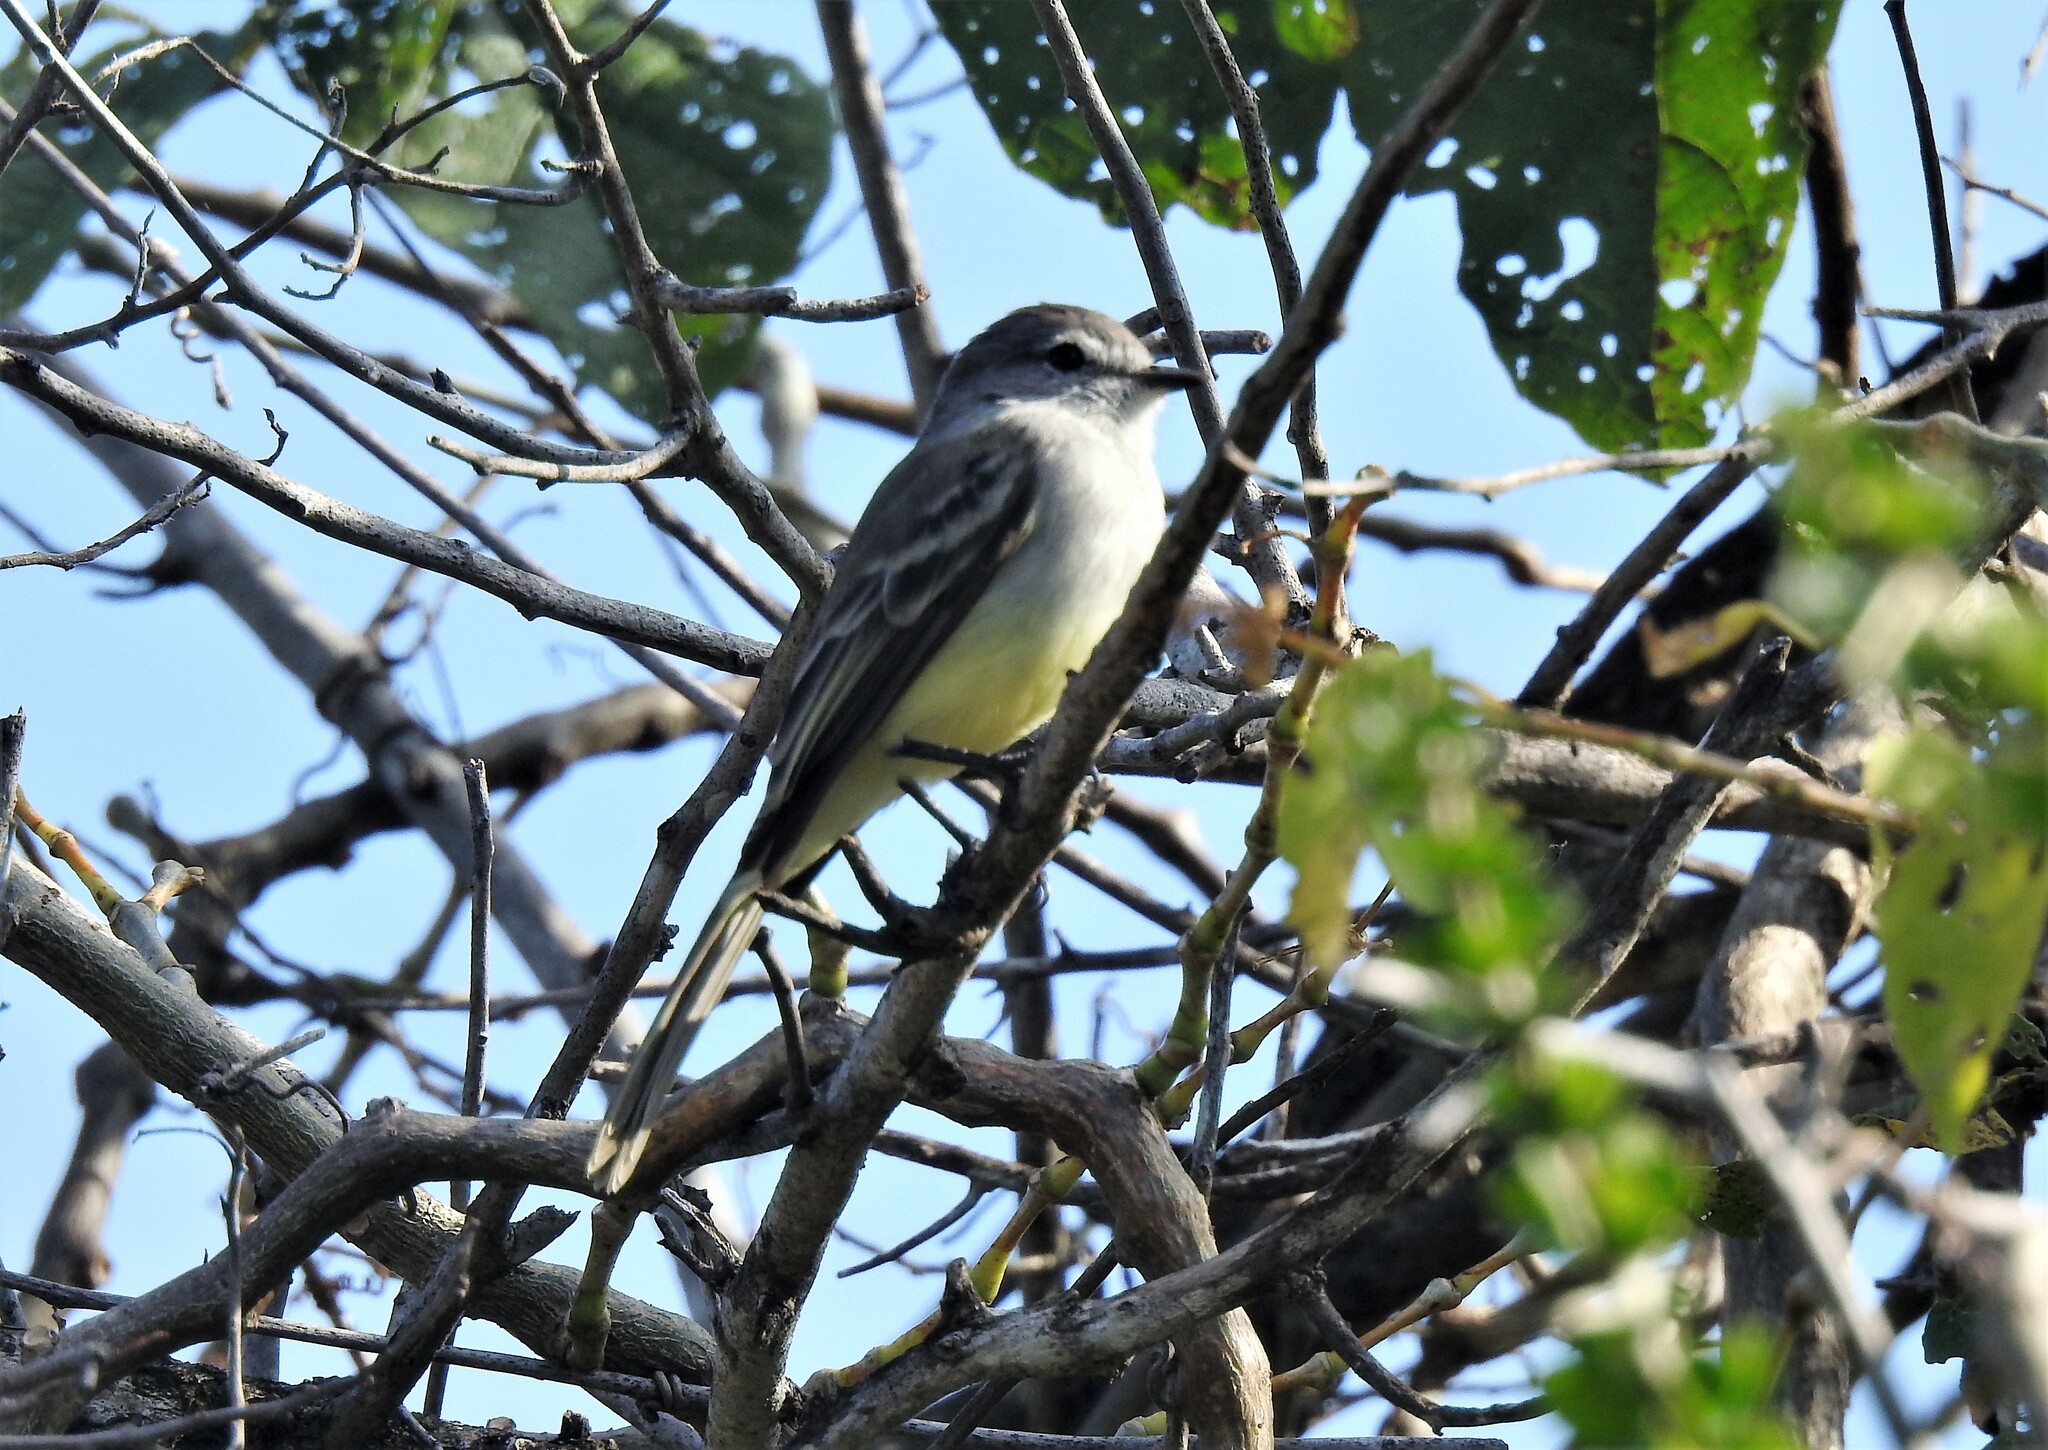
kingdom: Animalia
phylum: Chordata
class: Aves
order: Passeriformes
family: Tyrannidae
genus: Sublegatus
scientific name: Sublegatus arenarum
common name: Northern scrub-flycatcher
